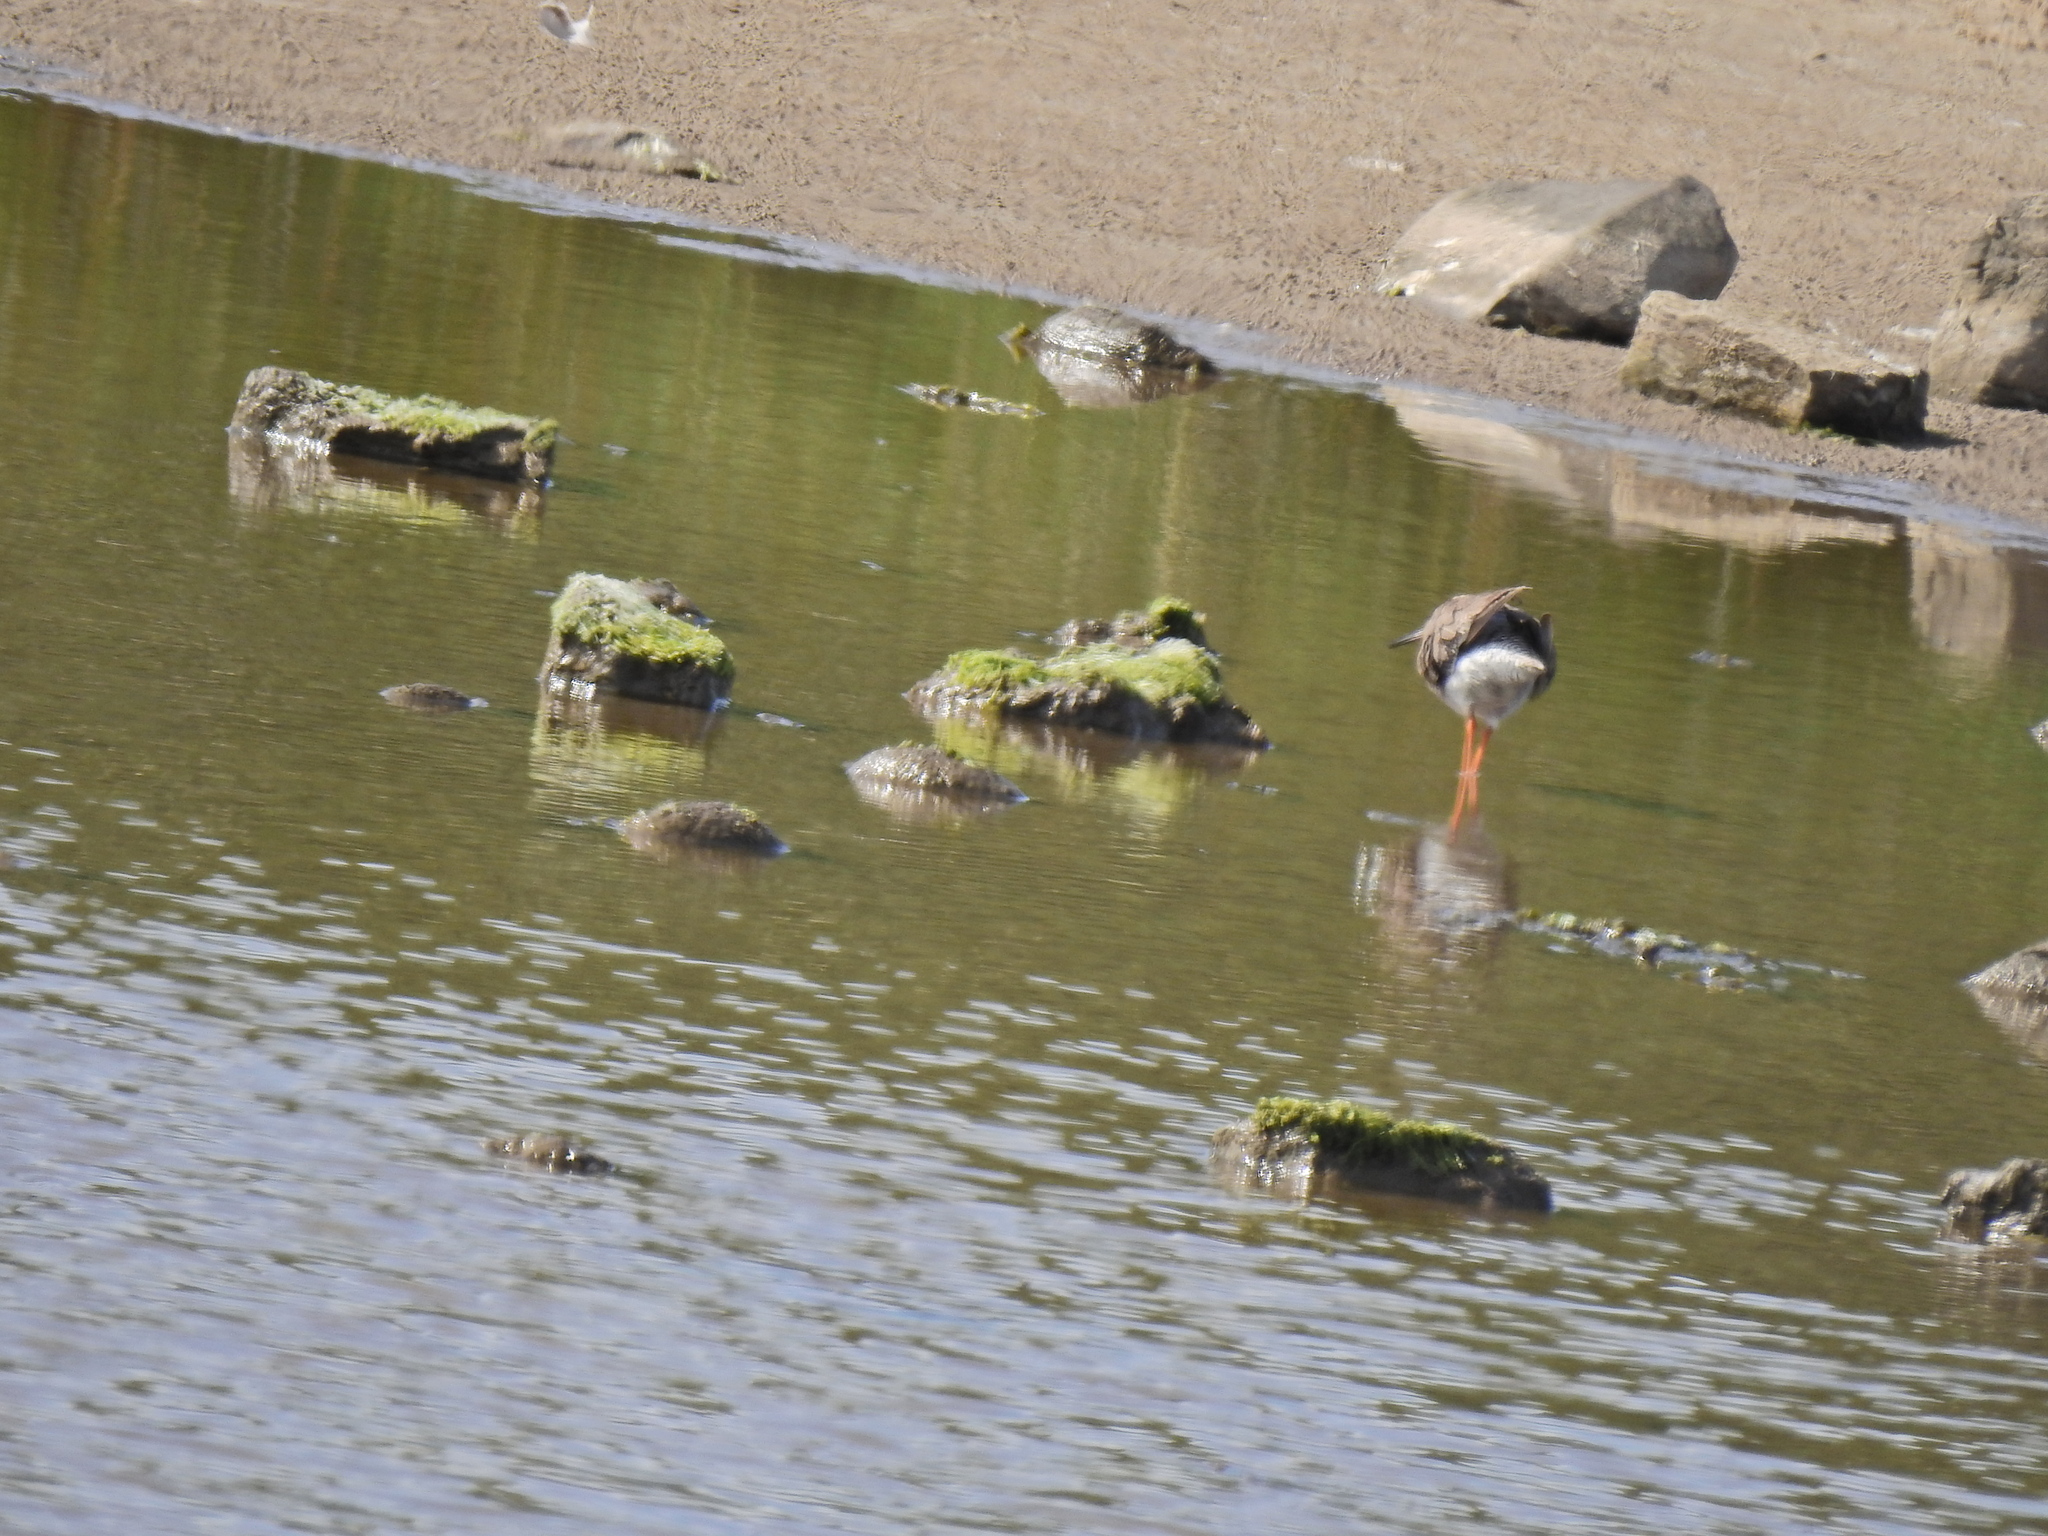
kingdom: Animalia
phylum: Chordata
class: Aves
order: Charadriiformes
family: Scolopacidae
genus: Tringa
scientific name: Tringa totanus
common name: Common redshank
